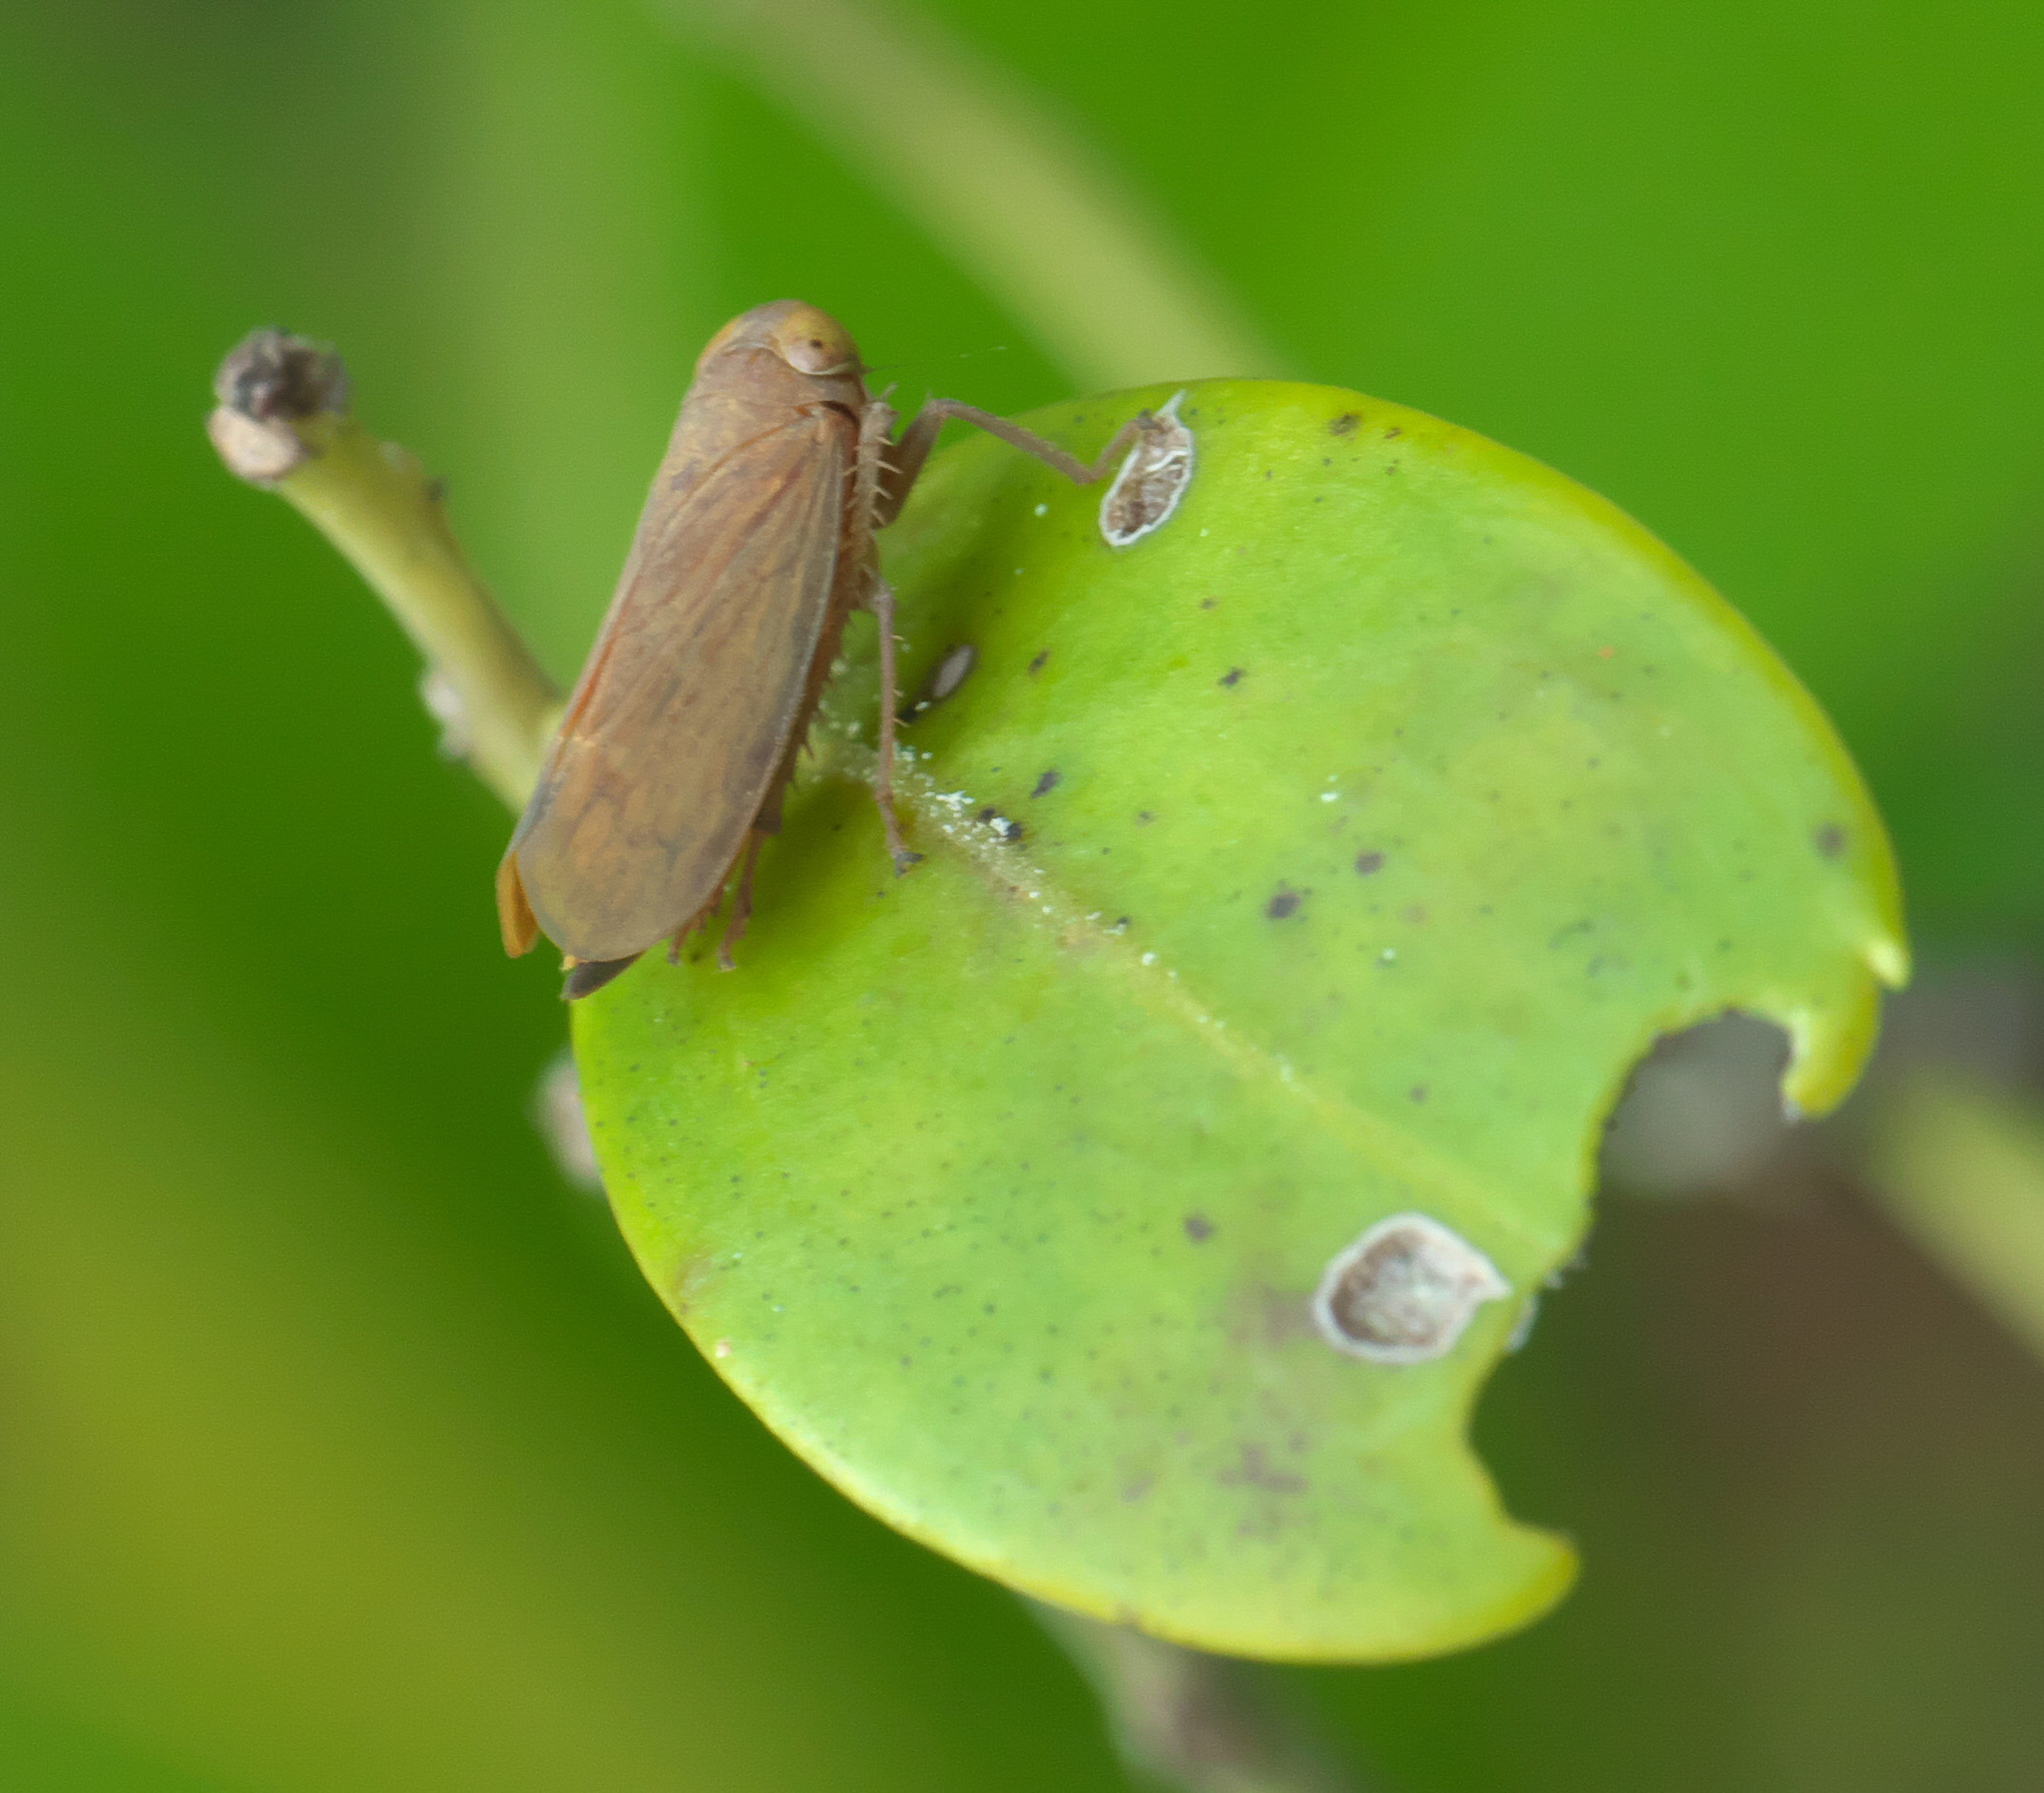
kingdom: Animalia
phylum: Arthropoda
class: Insecta
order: Hemiptera
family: Cicadellidae
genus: Jikradia
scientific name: Jikradia olitoria
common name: Coppery leafhopper
